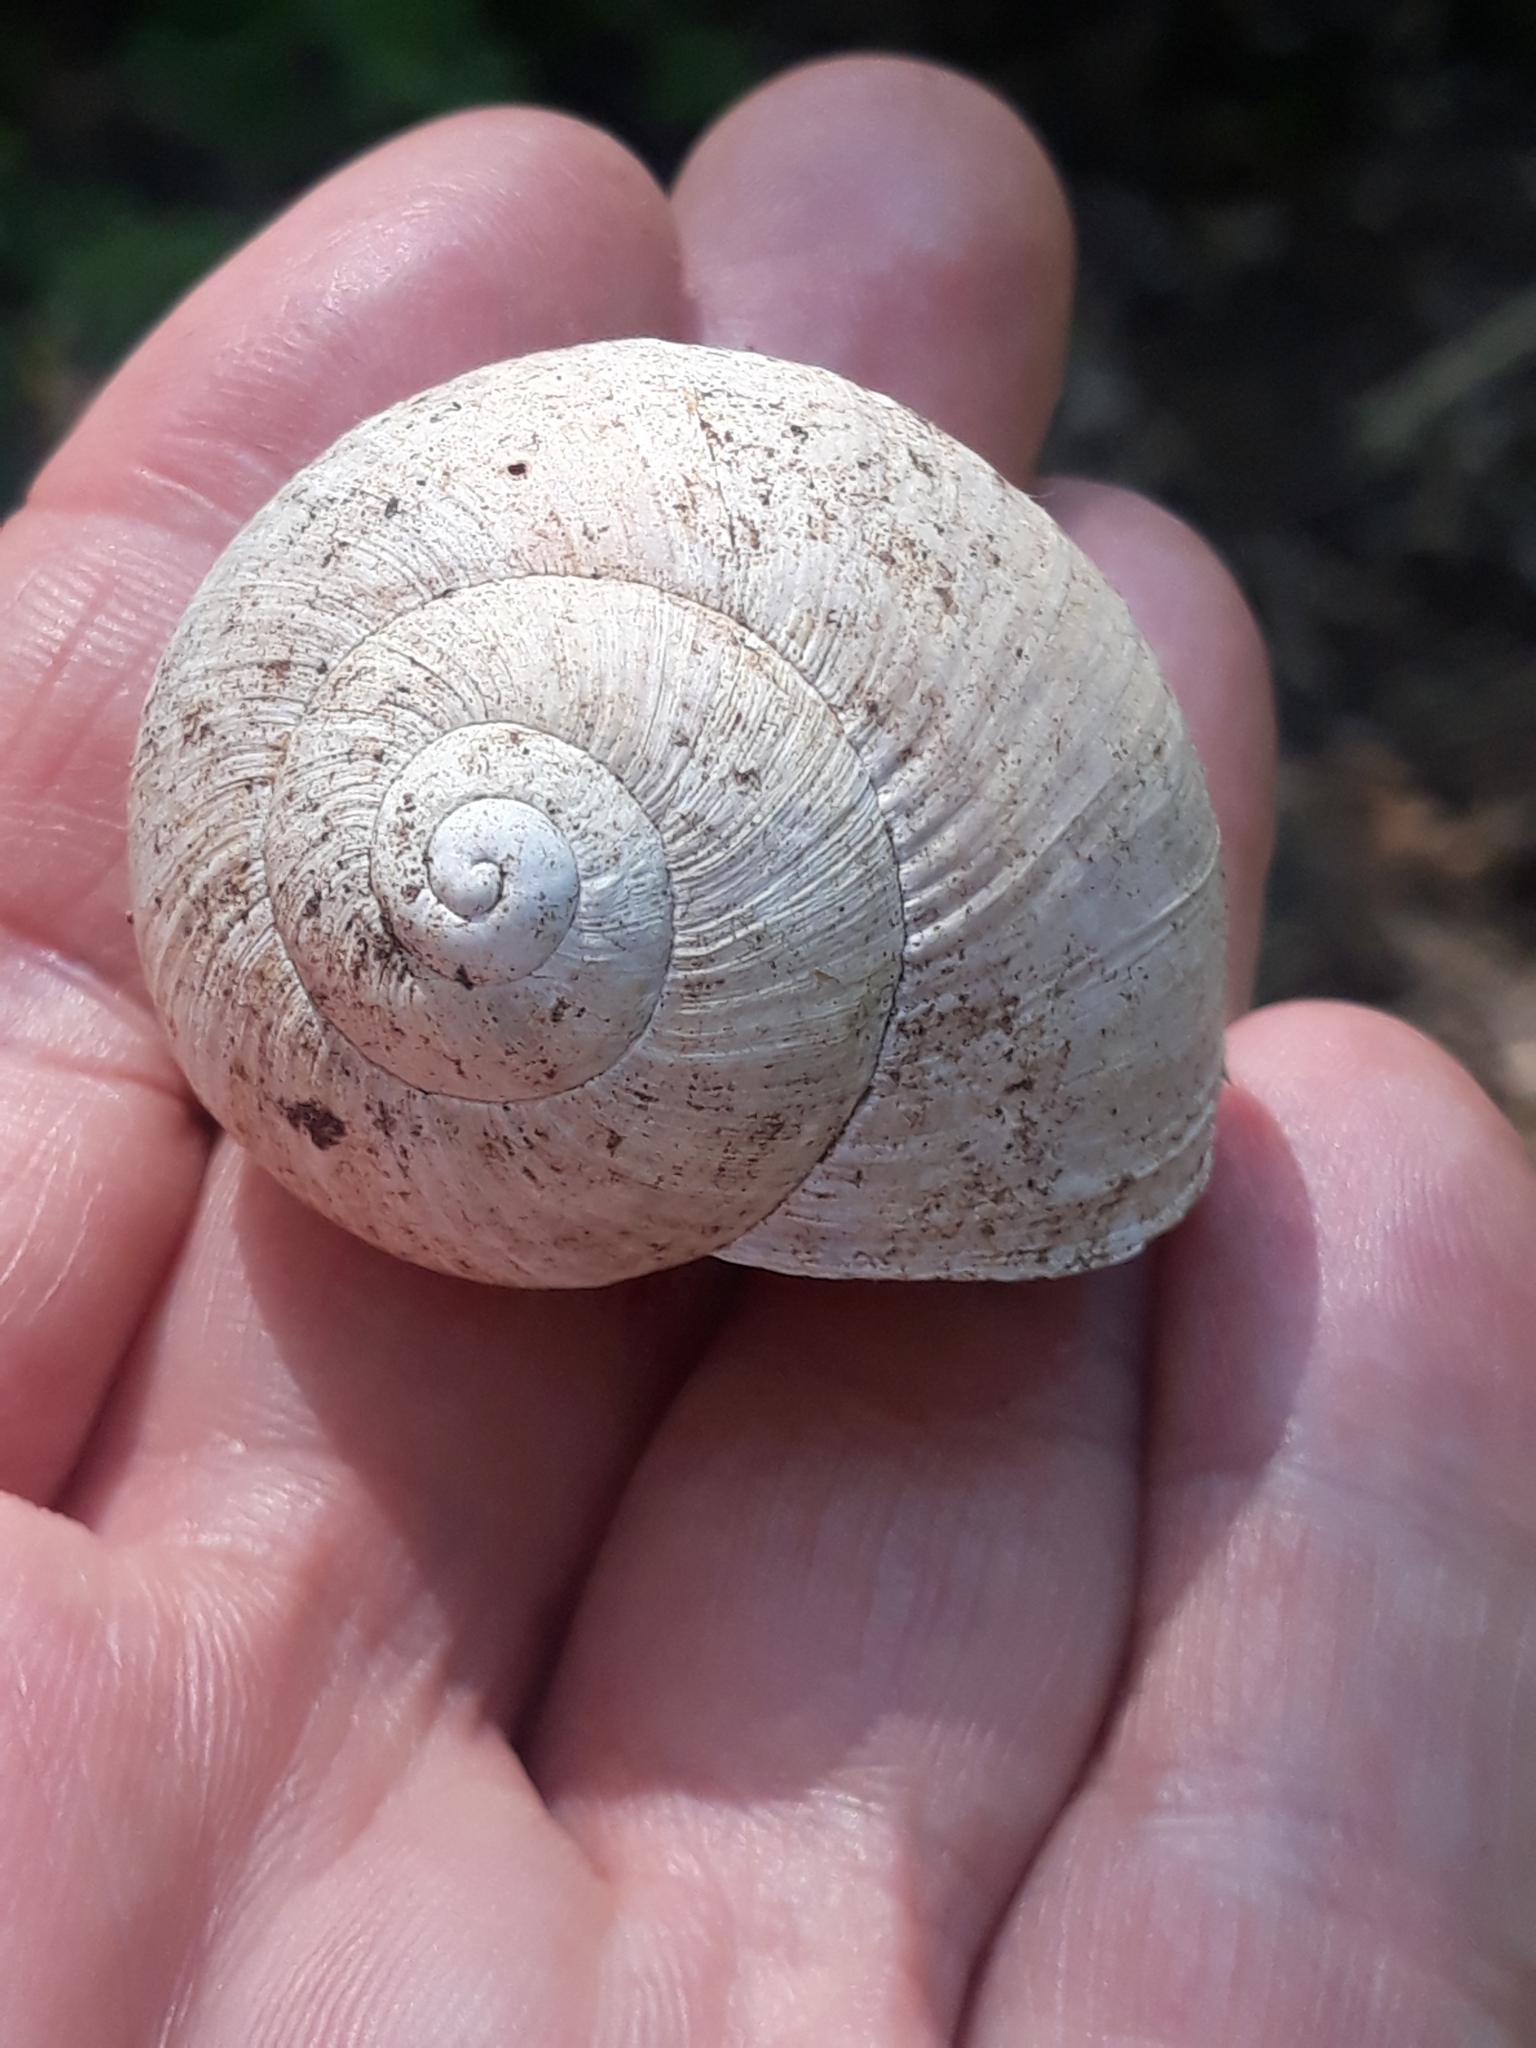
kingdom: Animalia
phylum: Mollusca
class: Gastropoda
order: Stylommatophora
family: Helicidae
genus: Helix
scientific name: Helix pomatia
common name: Roman snail
